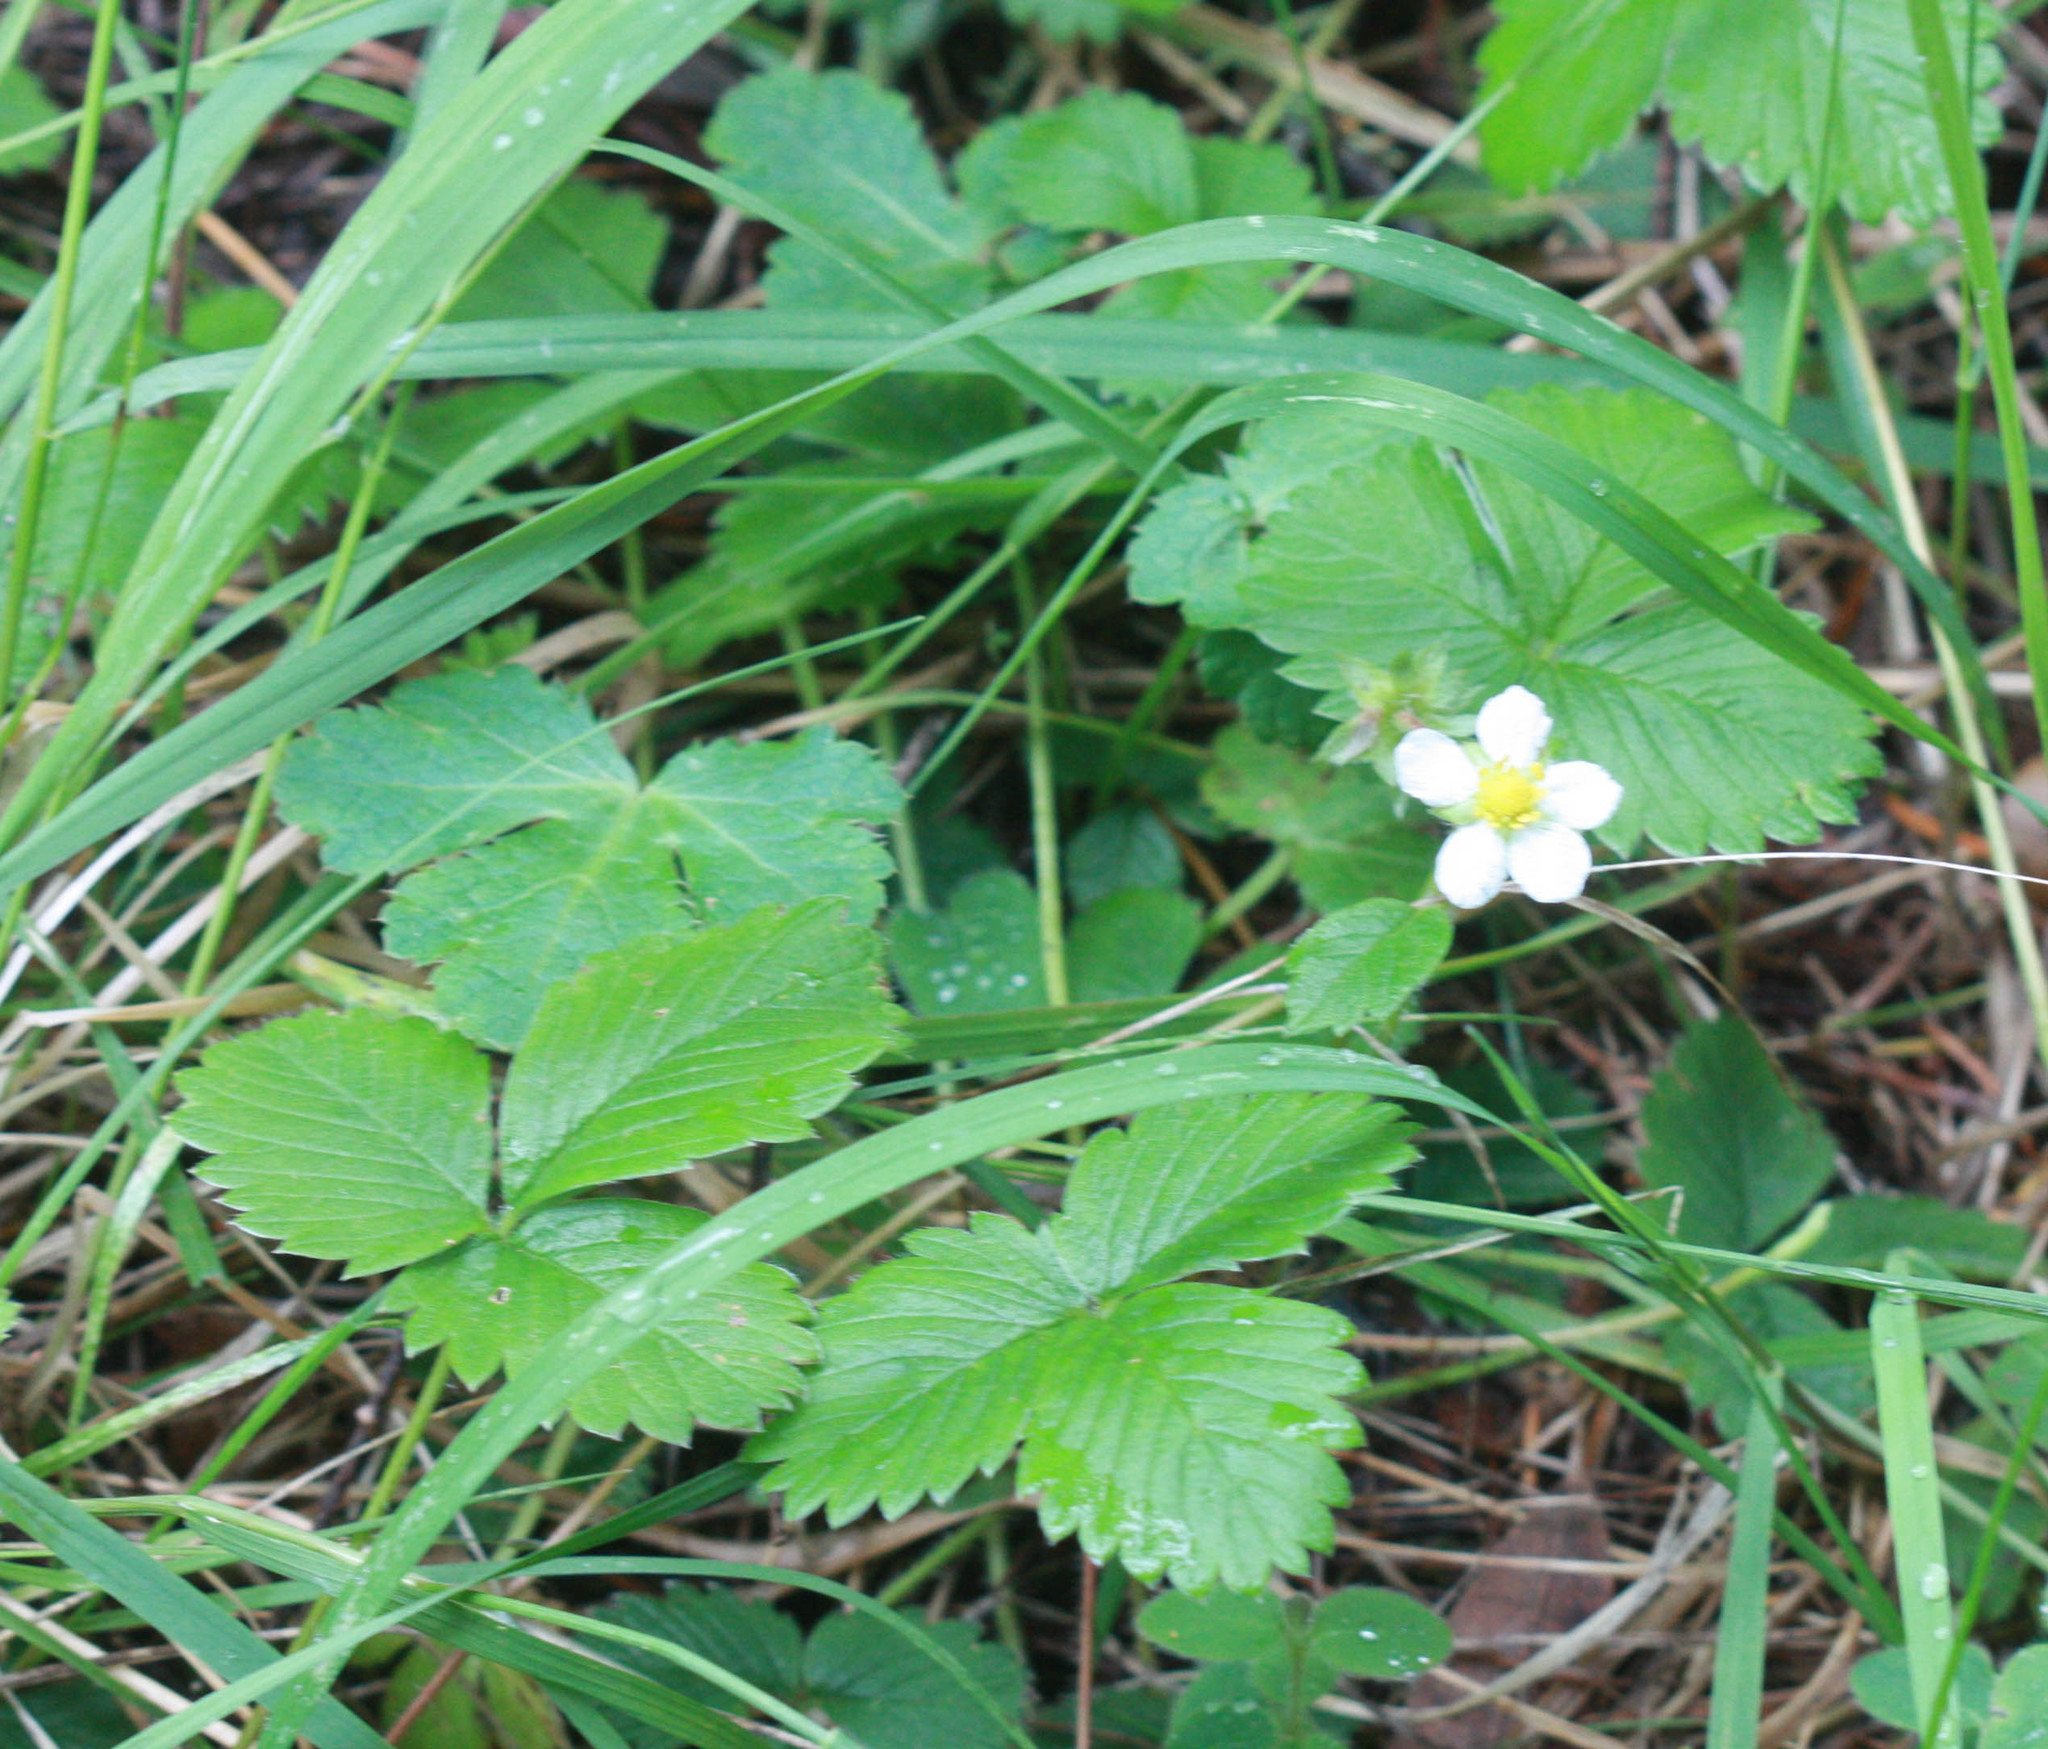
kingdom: Plantae
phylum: Tracheophyta
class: Magnoliopsida
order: Rosales
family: Rosaceae
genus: Fragaria
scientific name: Fragaria vesca
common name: Wild strawberry
